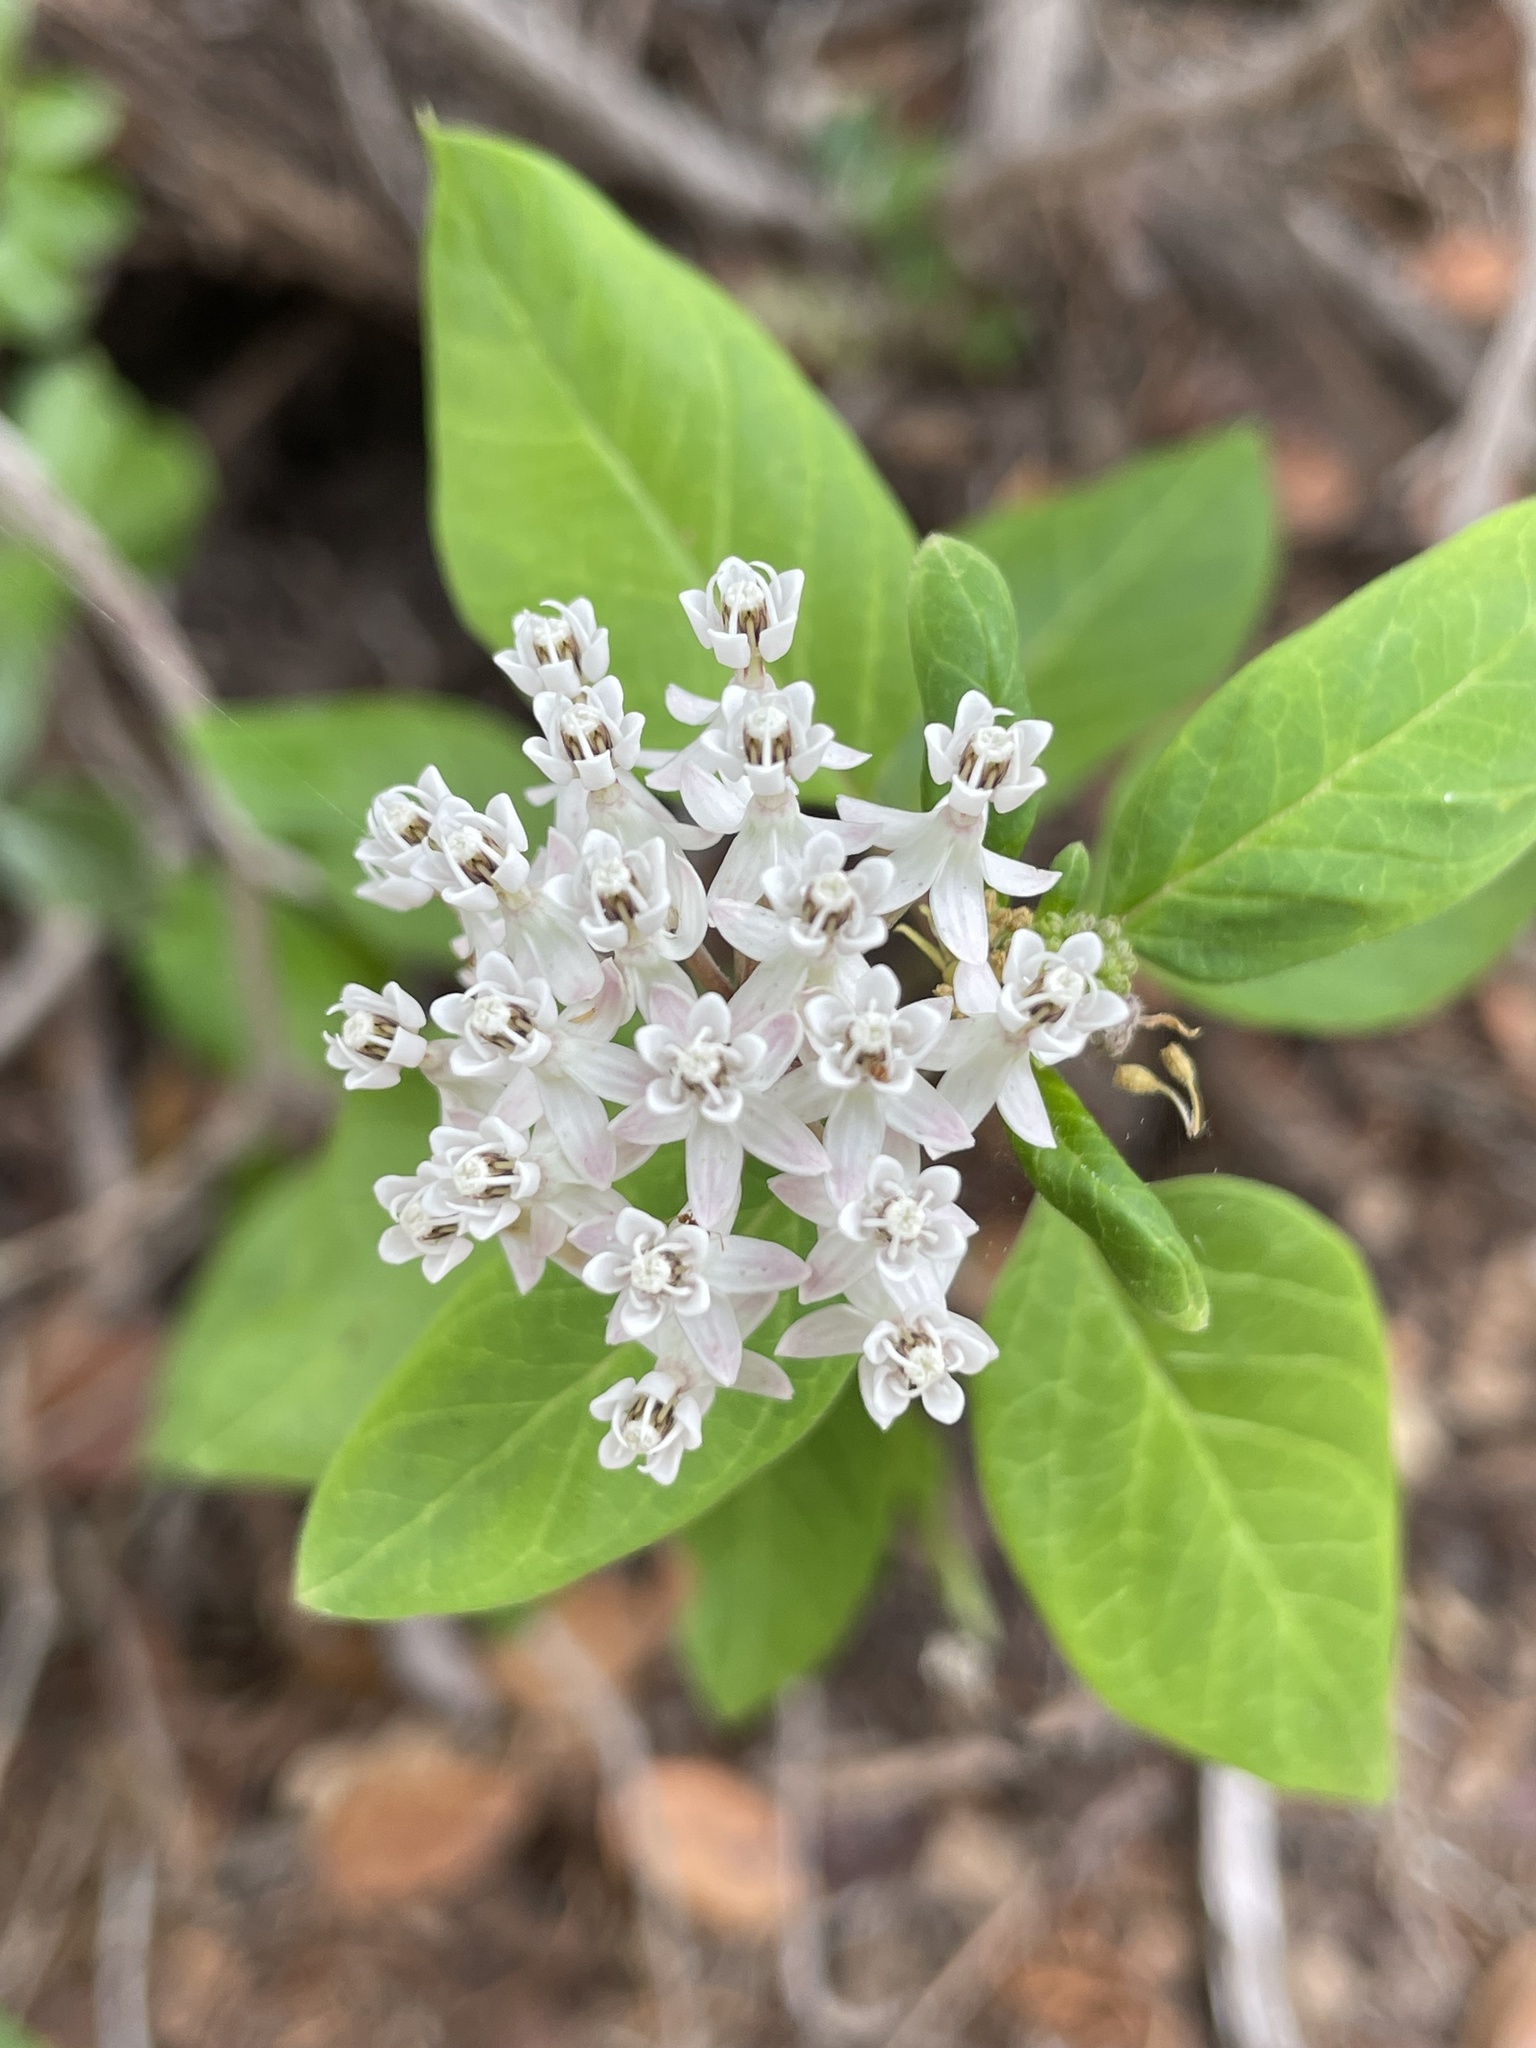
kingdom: Plantae
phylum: Tracheophyta
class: Magnoliopsida
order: Gentianales
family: Apocynaceae
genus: Asclepias
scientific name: Asclepias texana
